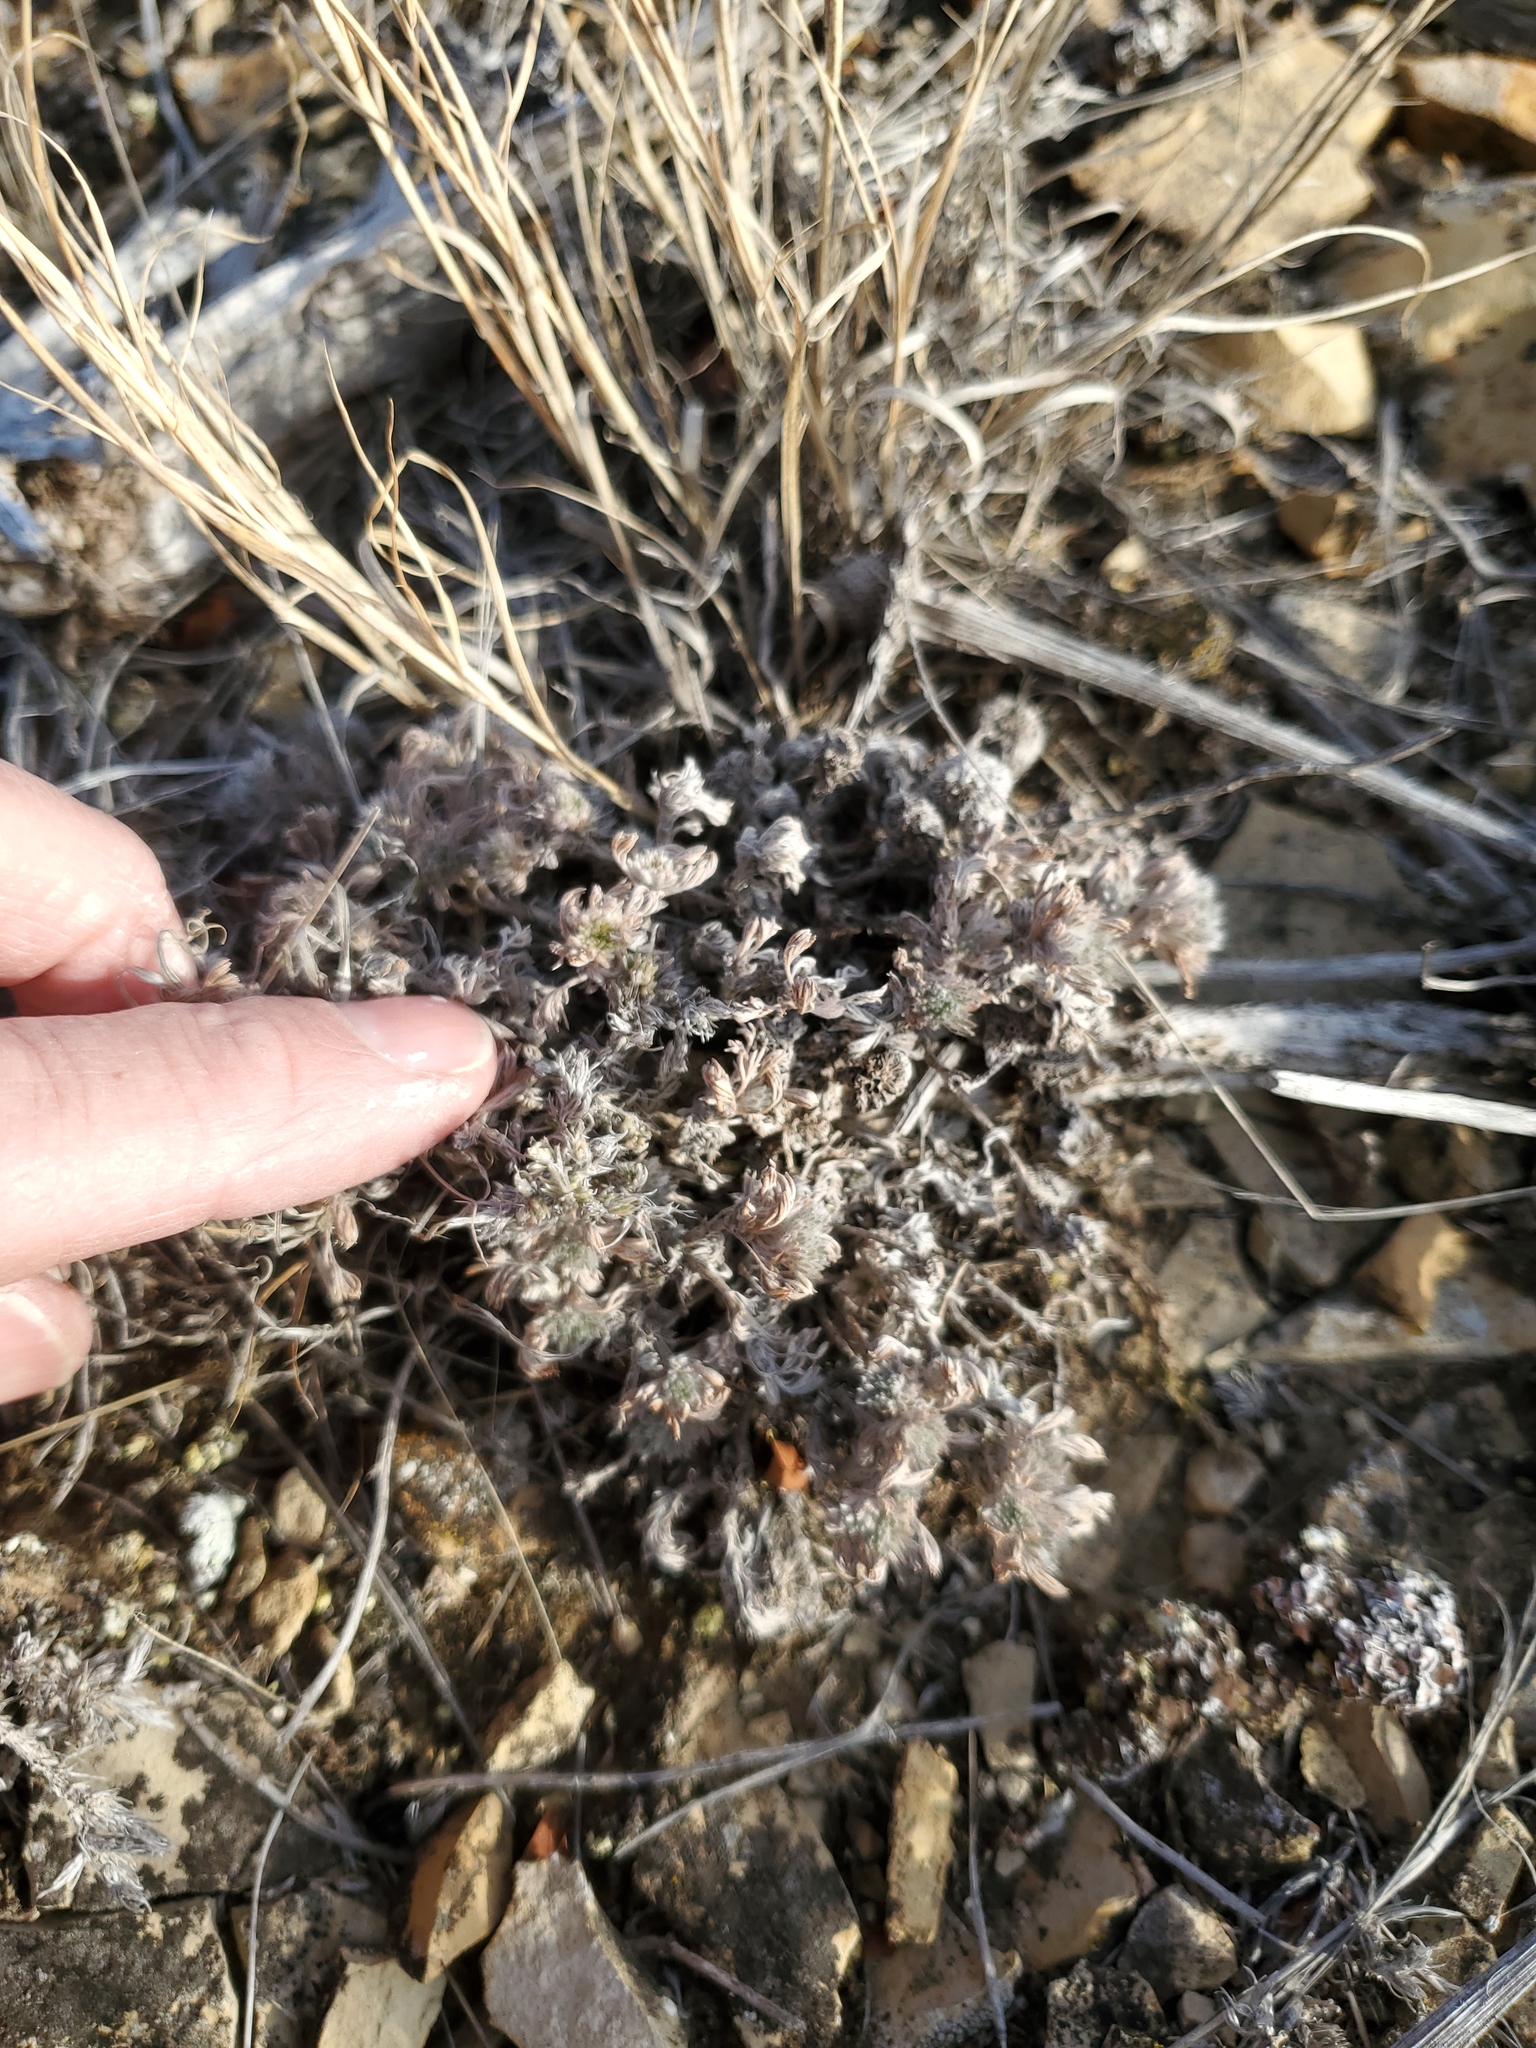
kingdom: Plantae
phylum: Tracheophyta
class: Magnoliopsida
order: Asterales
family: Asteraceae
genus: Artemisia
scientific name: Artemisia frigida
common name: Prairie sagewort
